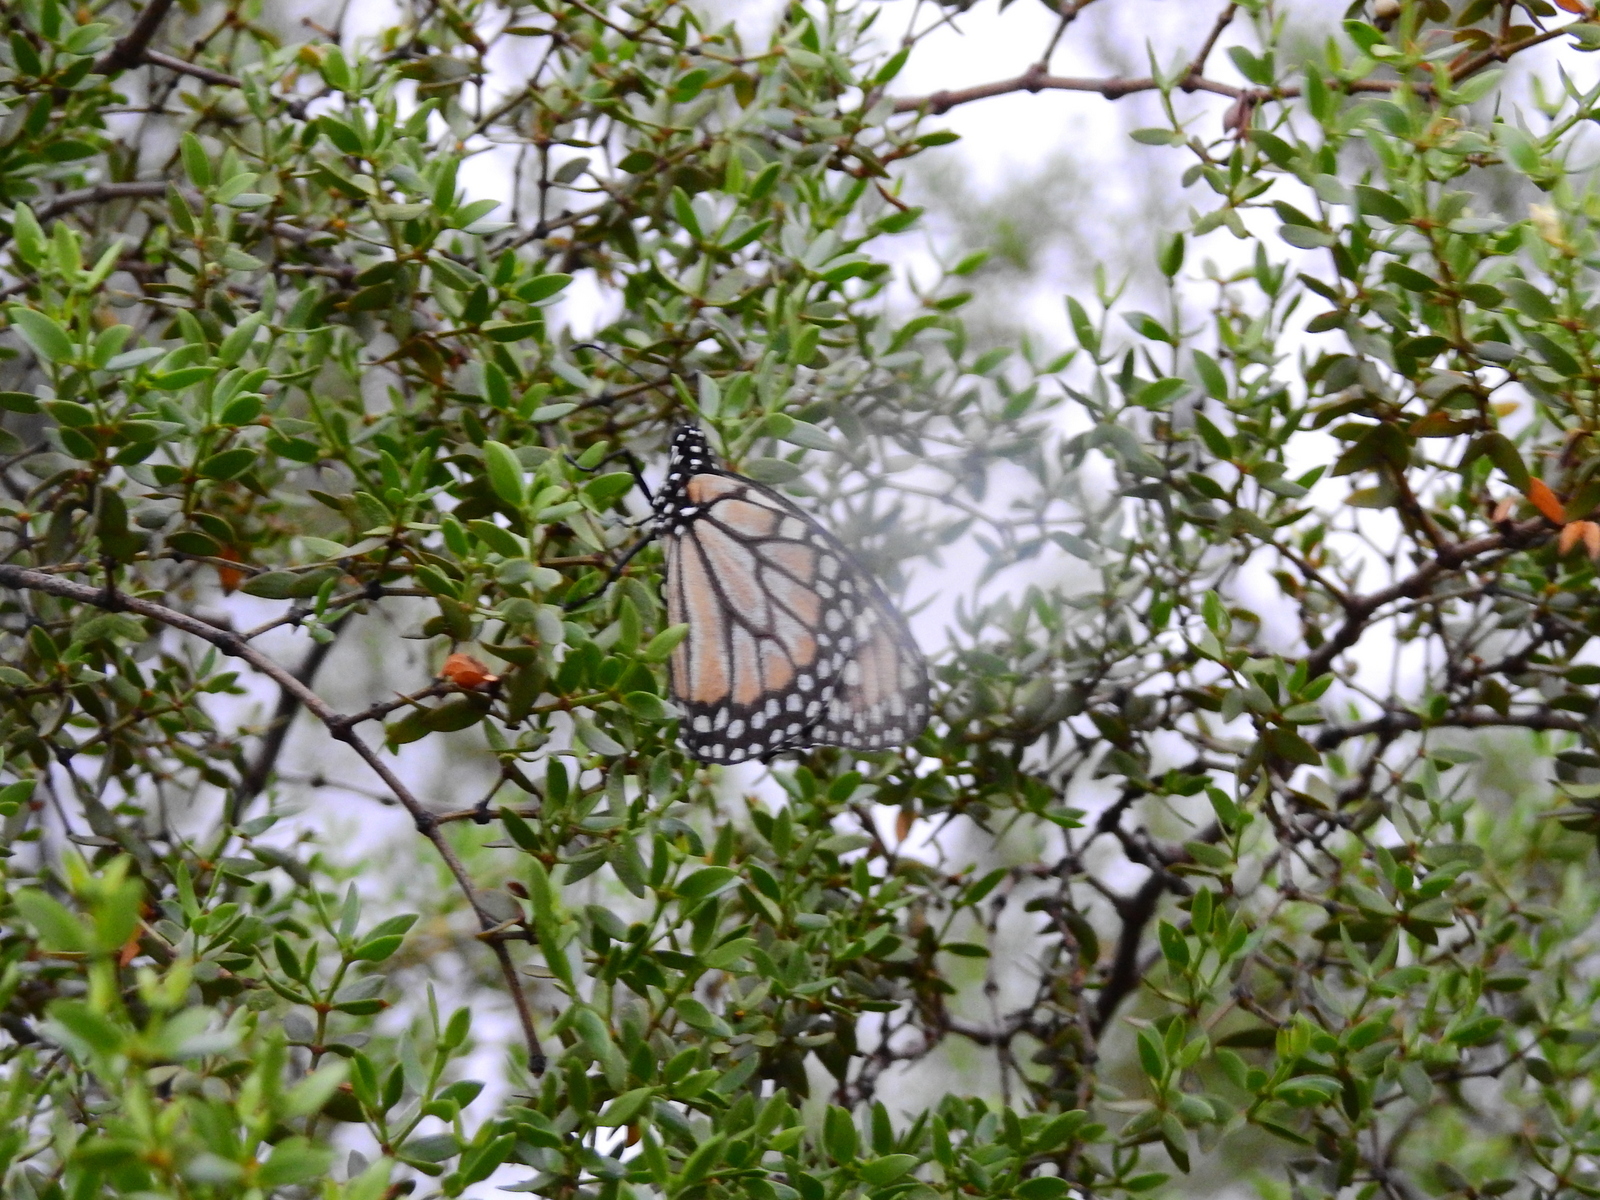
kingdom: Animalia
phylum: Arthropoda
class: Insecta
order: Lepidoptera
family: Nymphalidae
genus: Danaus
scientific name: Danaus erippus
